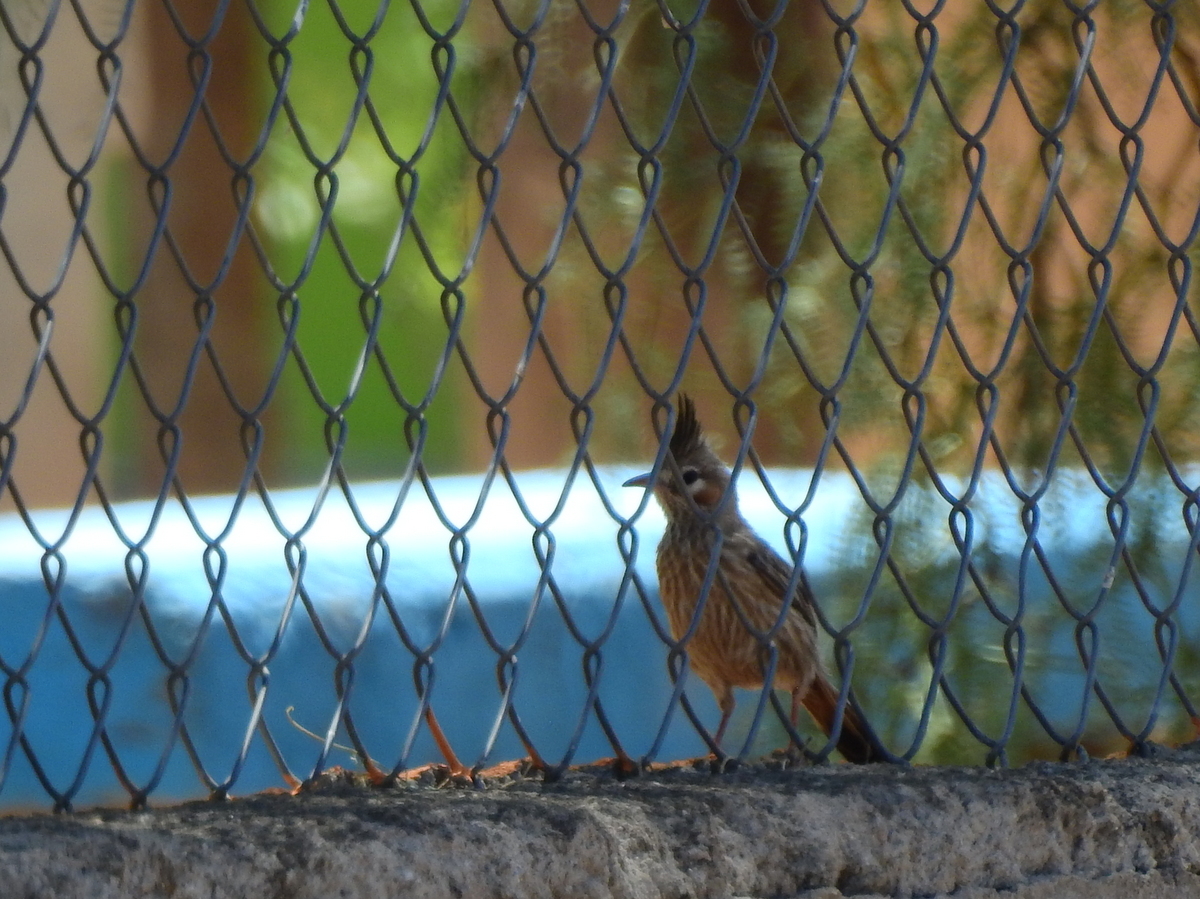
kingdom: Animalia
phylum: Chordata
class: Aves
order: Passeriformes
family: Furnariidae
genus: Coryphistera
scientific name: Coryphistera alaudina
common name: Lark-like brushrunner
